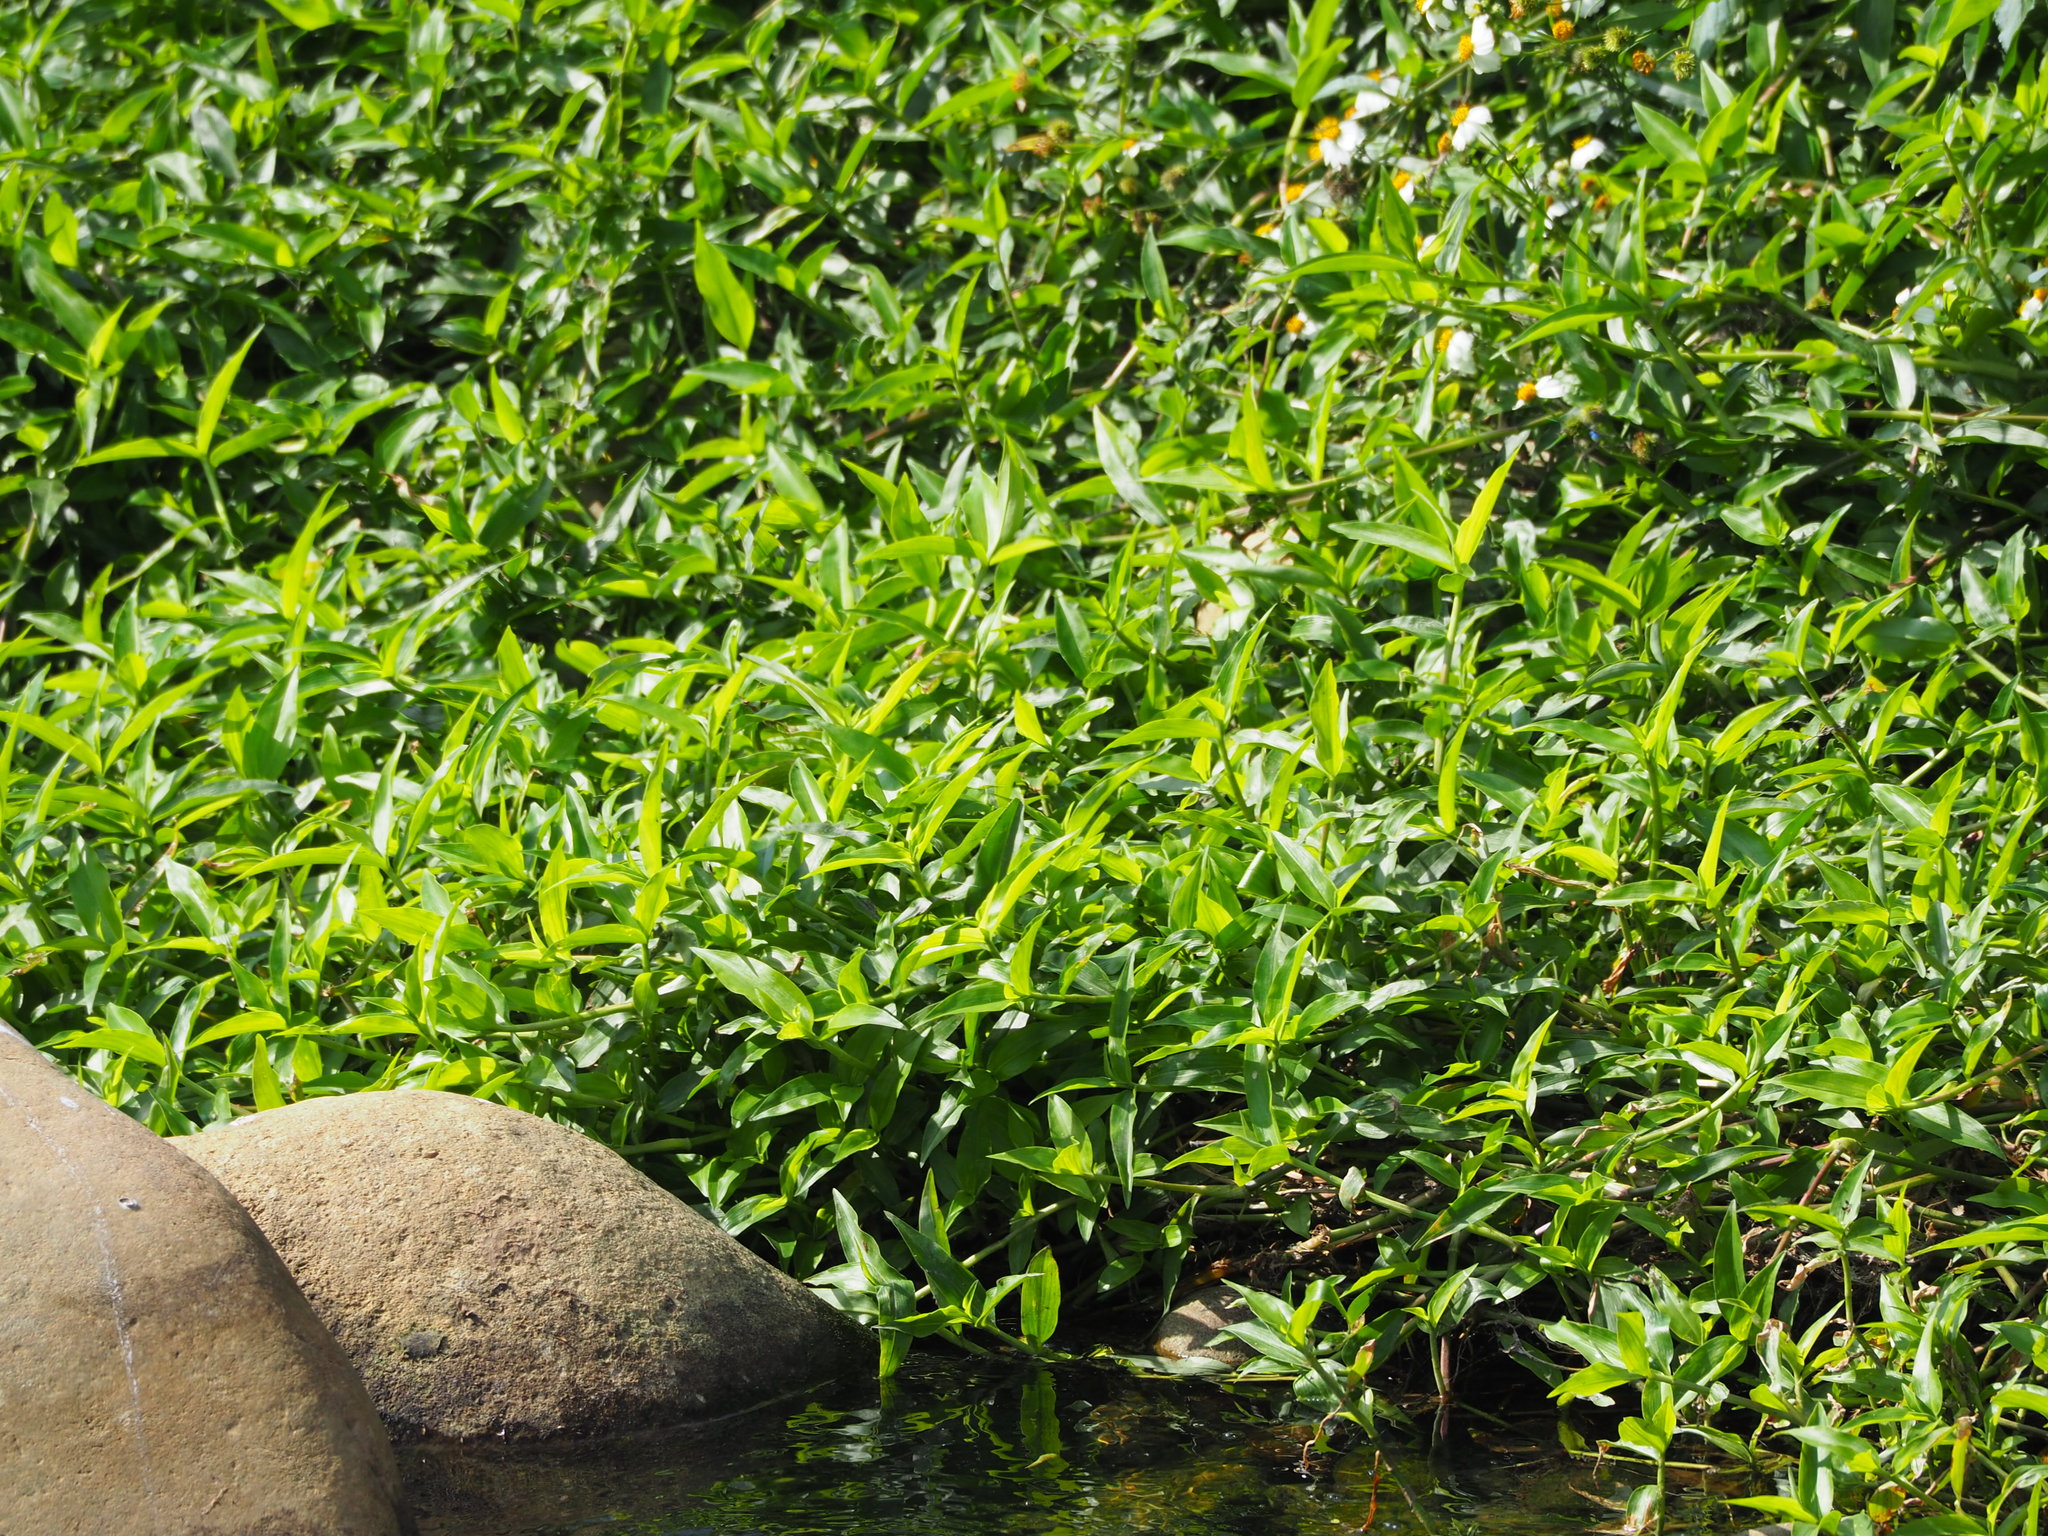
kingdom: Plantae
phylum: Tracheophyta
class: Liliopsida
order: Commelinales
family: Commelinaceae
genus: Commelina
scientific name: Commelina diffusa
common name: Climbing dayflower
